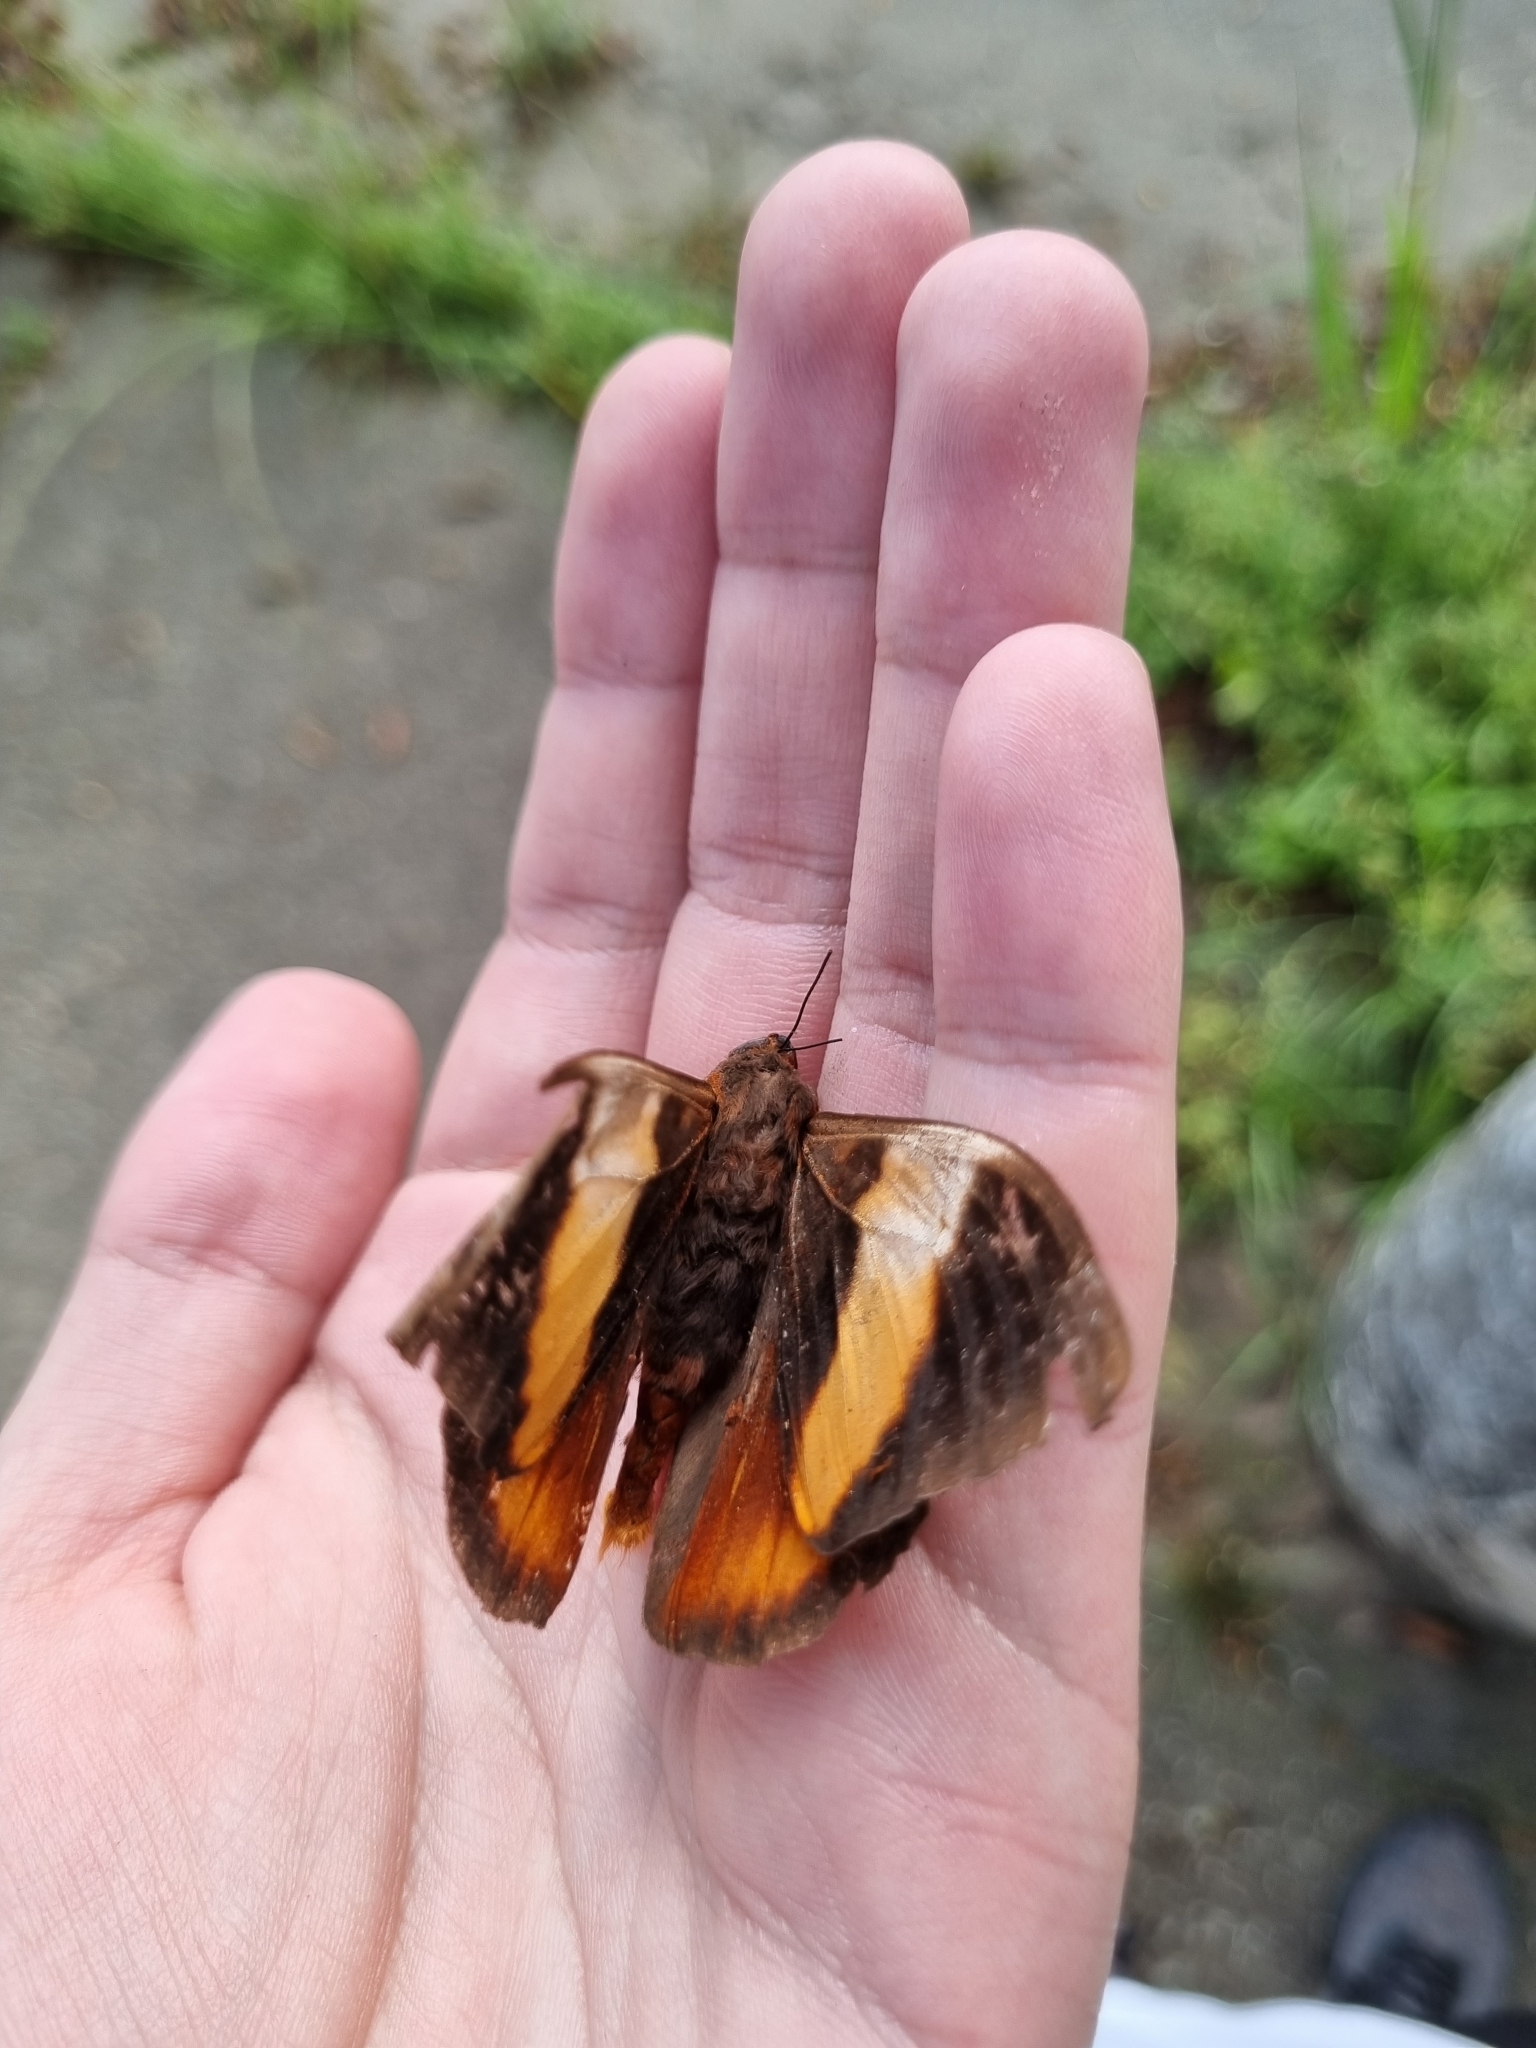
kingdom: Animalia
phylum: Arthropoda
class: Insecta
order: Lepidoptera
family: Nymphalidae
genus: Brassolis
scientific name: Brassolis sophorae
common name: Coconut caterpillar
